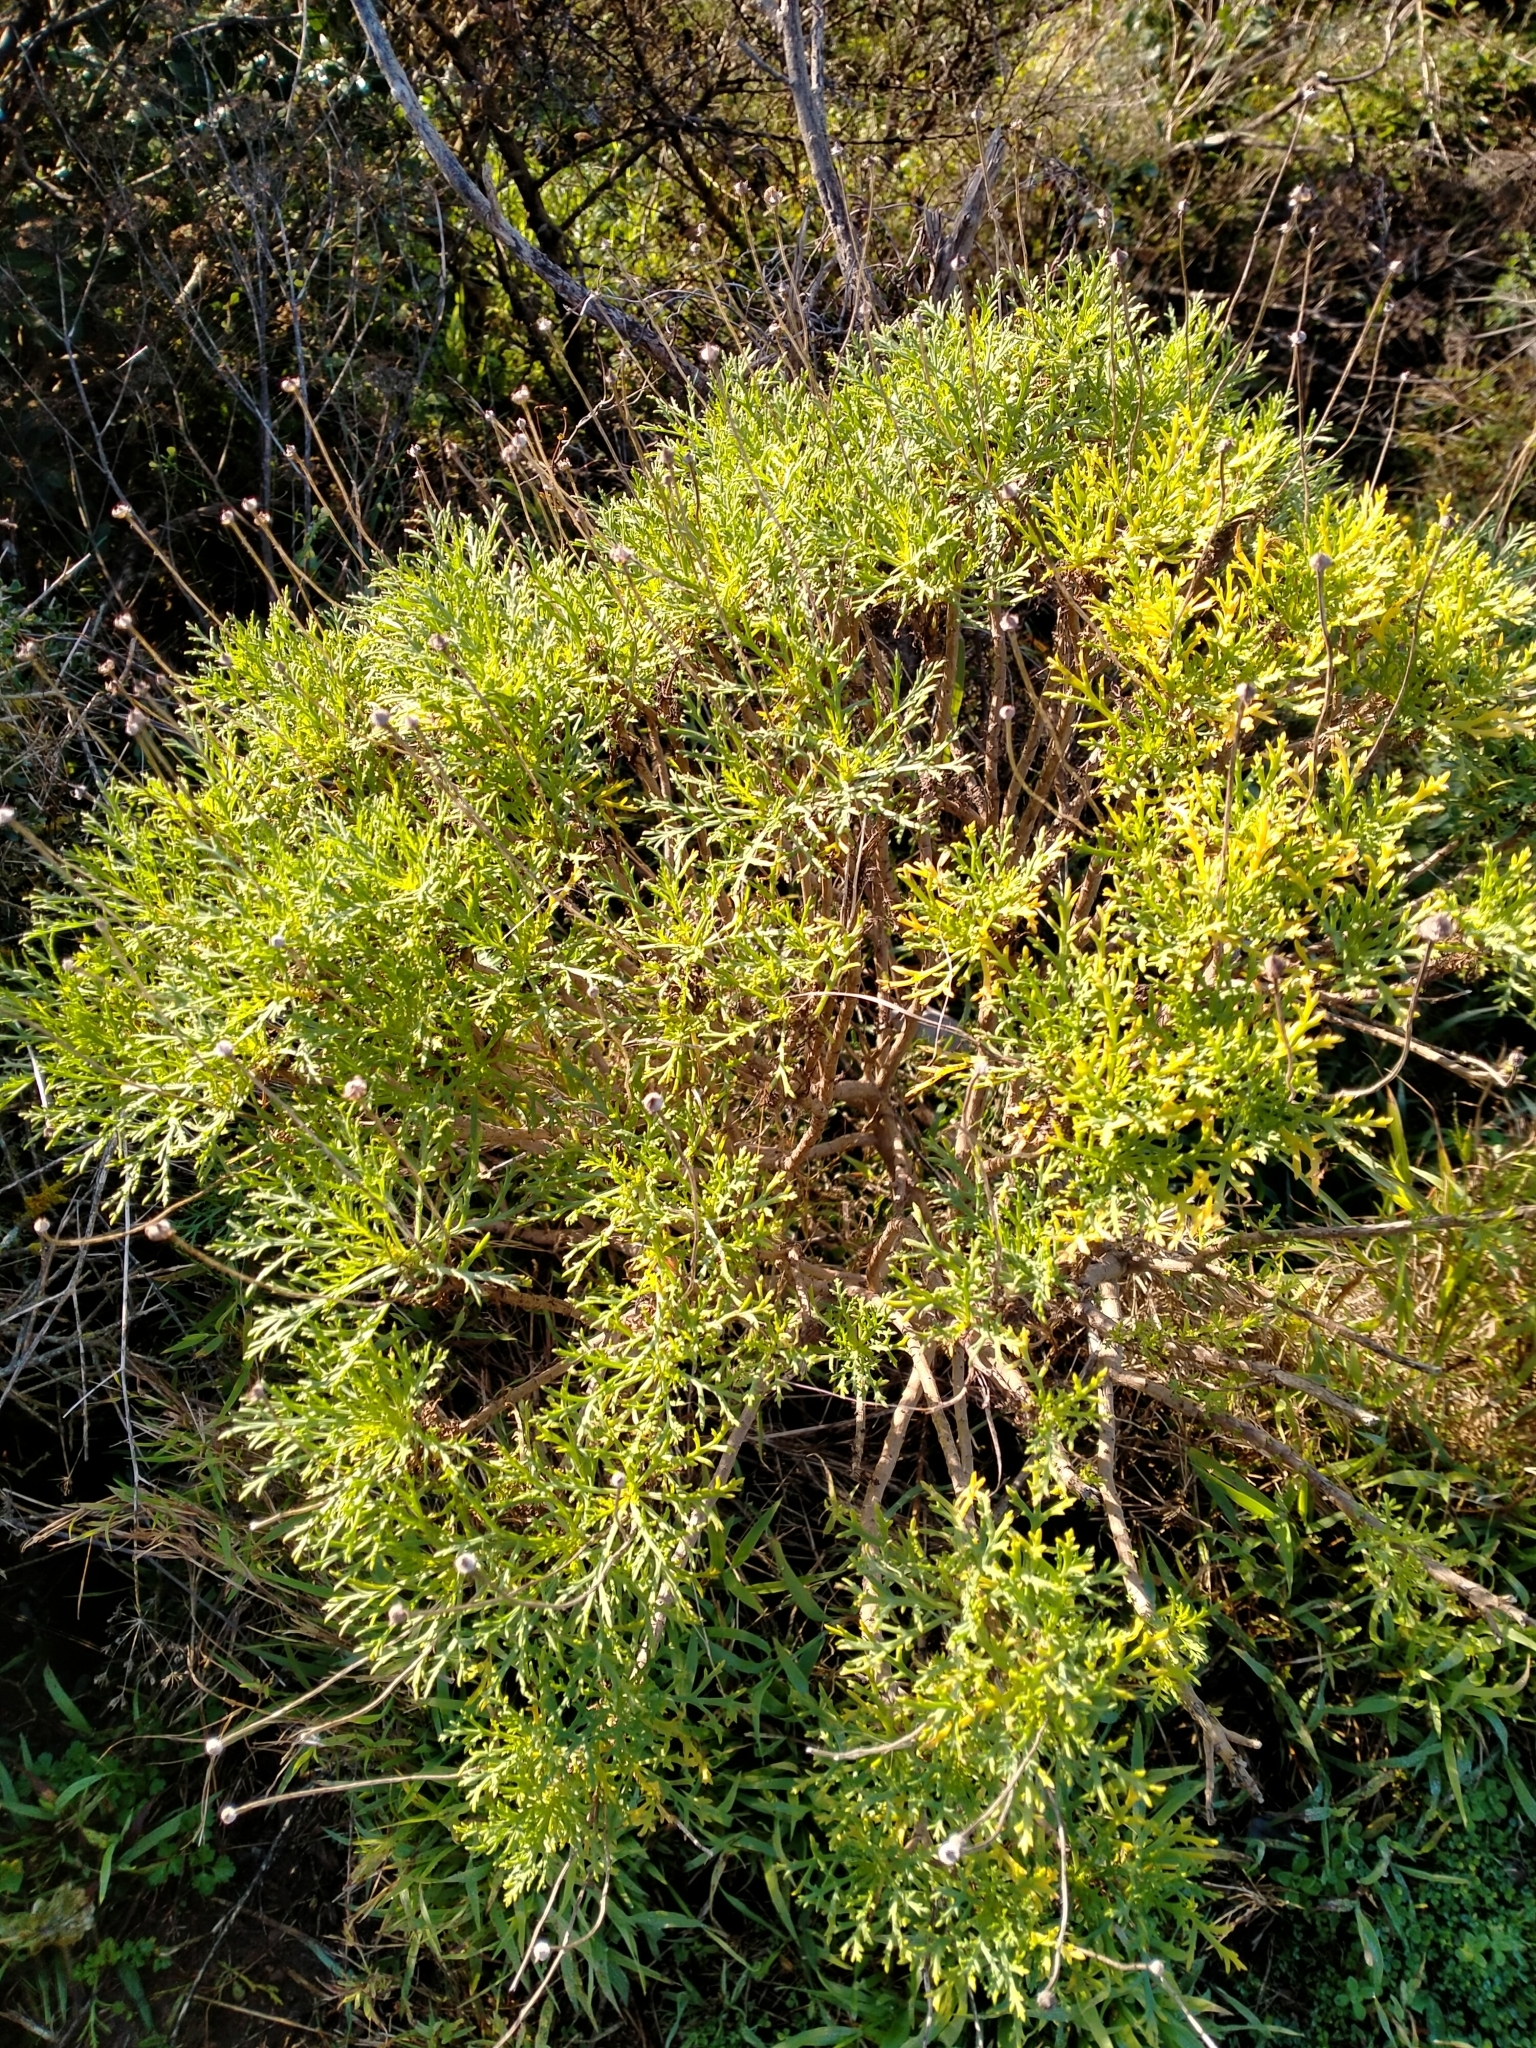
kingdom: Plantae
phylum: Tracheophyta
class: Magnoliopsida
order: Asterales
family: Asteraceae
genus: Argyranthemum
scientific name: Argyranthemum frutescens
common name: Paris daisy
